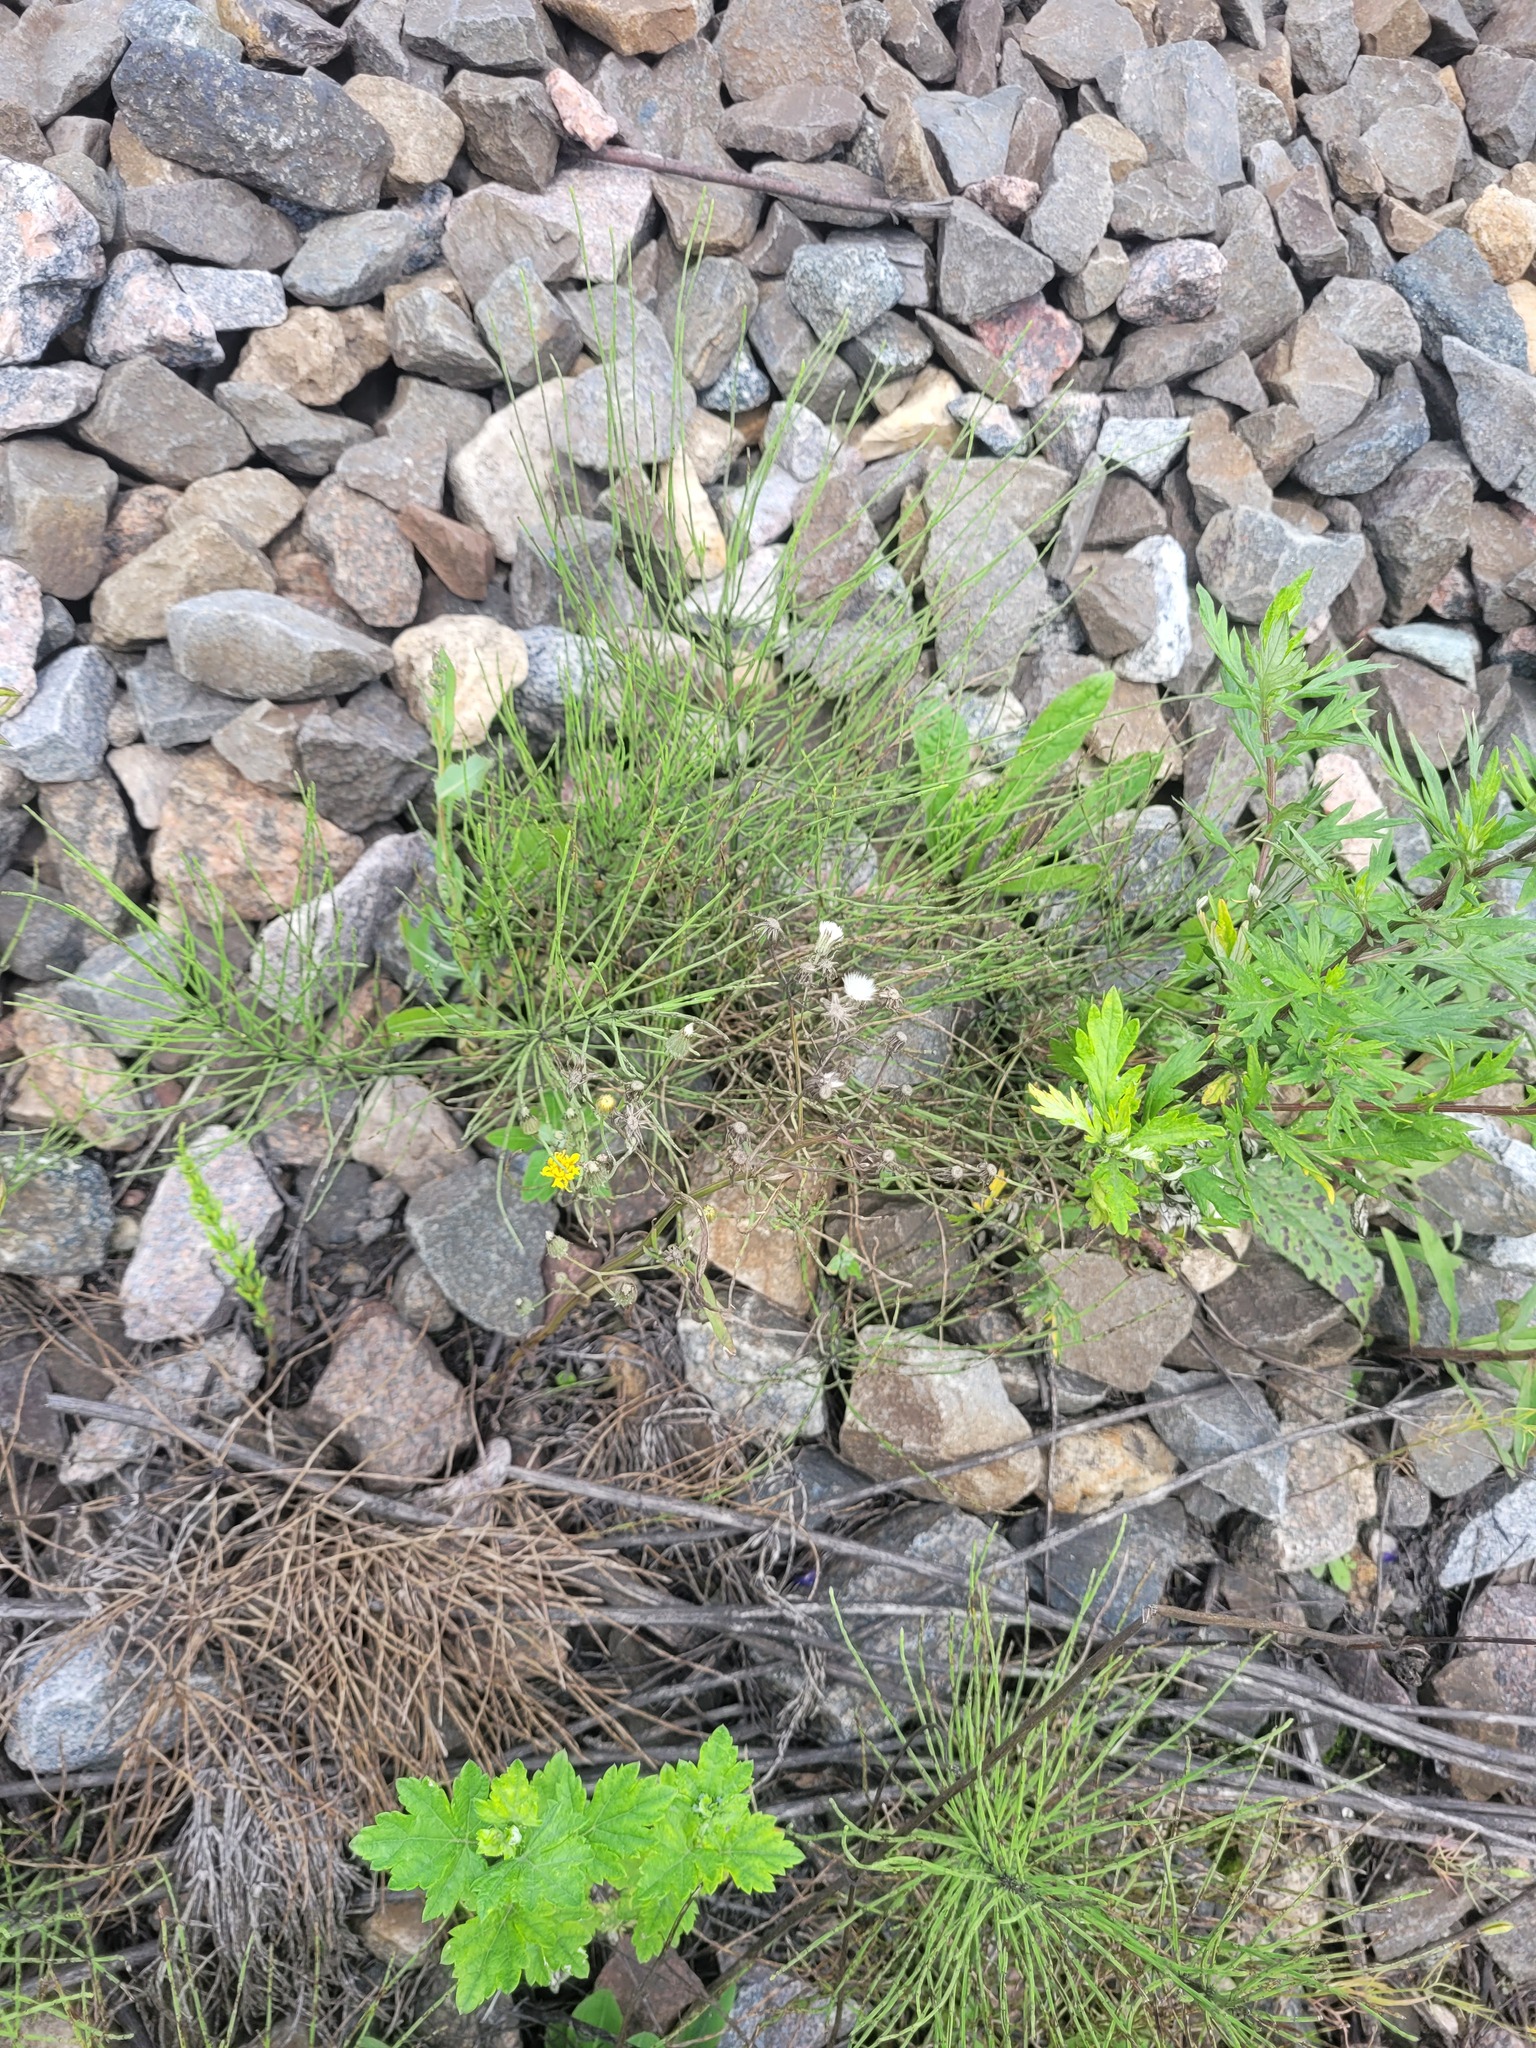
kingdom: Plantae
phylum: Tracheophyta
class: Magnoliopsida
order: Asterales
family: Asteraceae
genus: Crepis
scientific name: Crepis tectorum
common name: Narrow-leaved hawk's-beard
